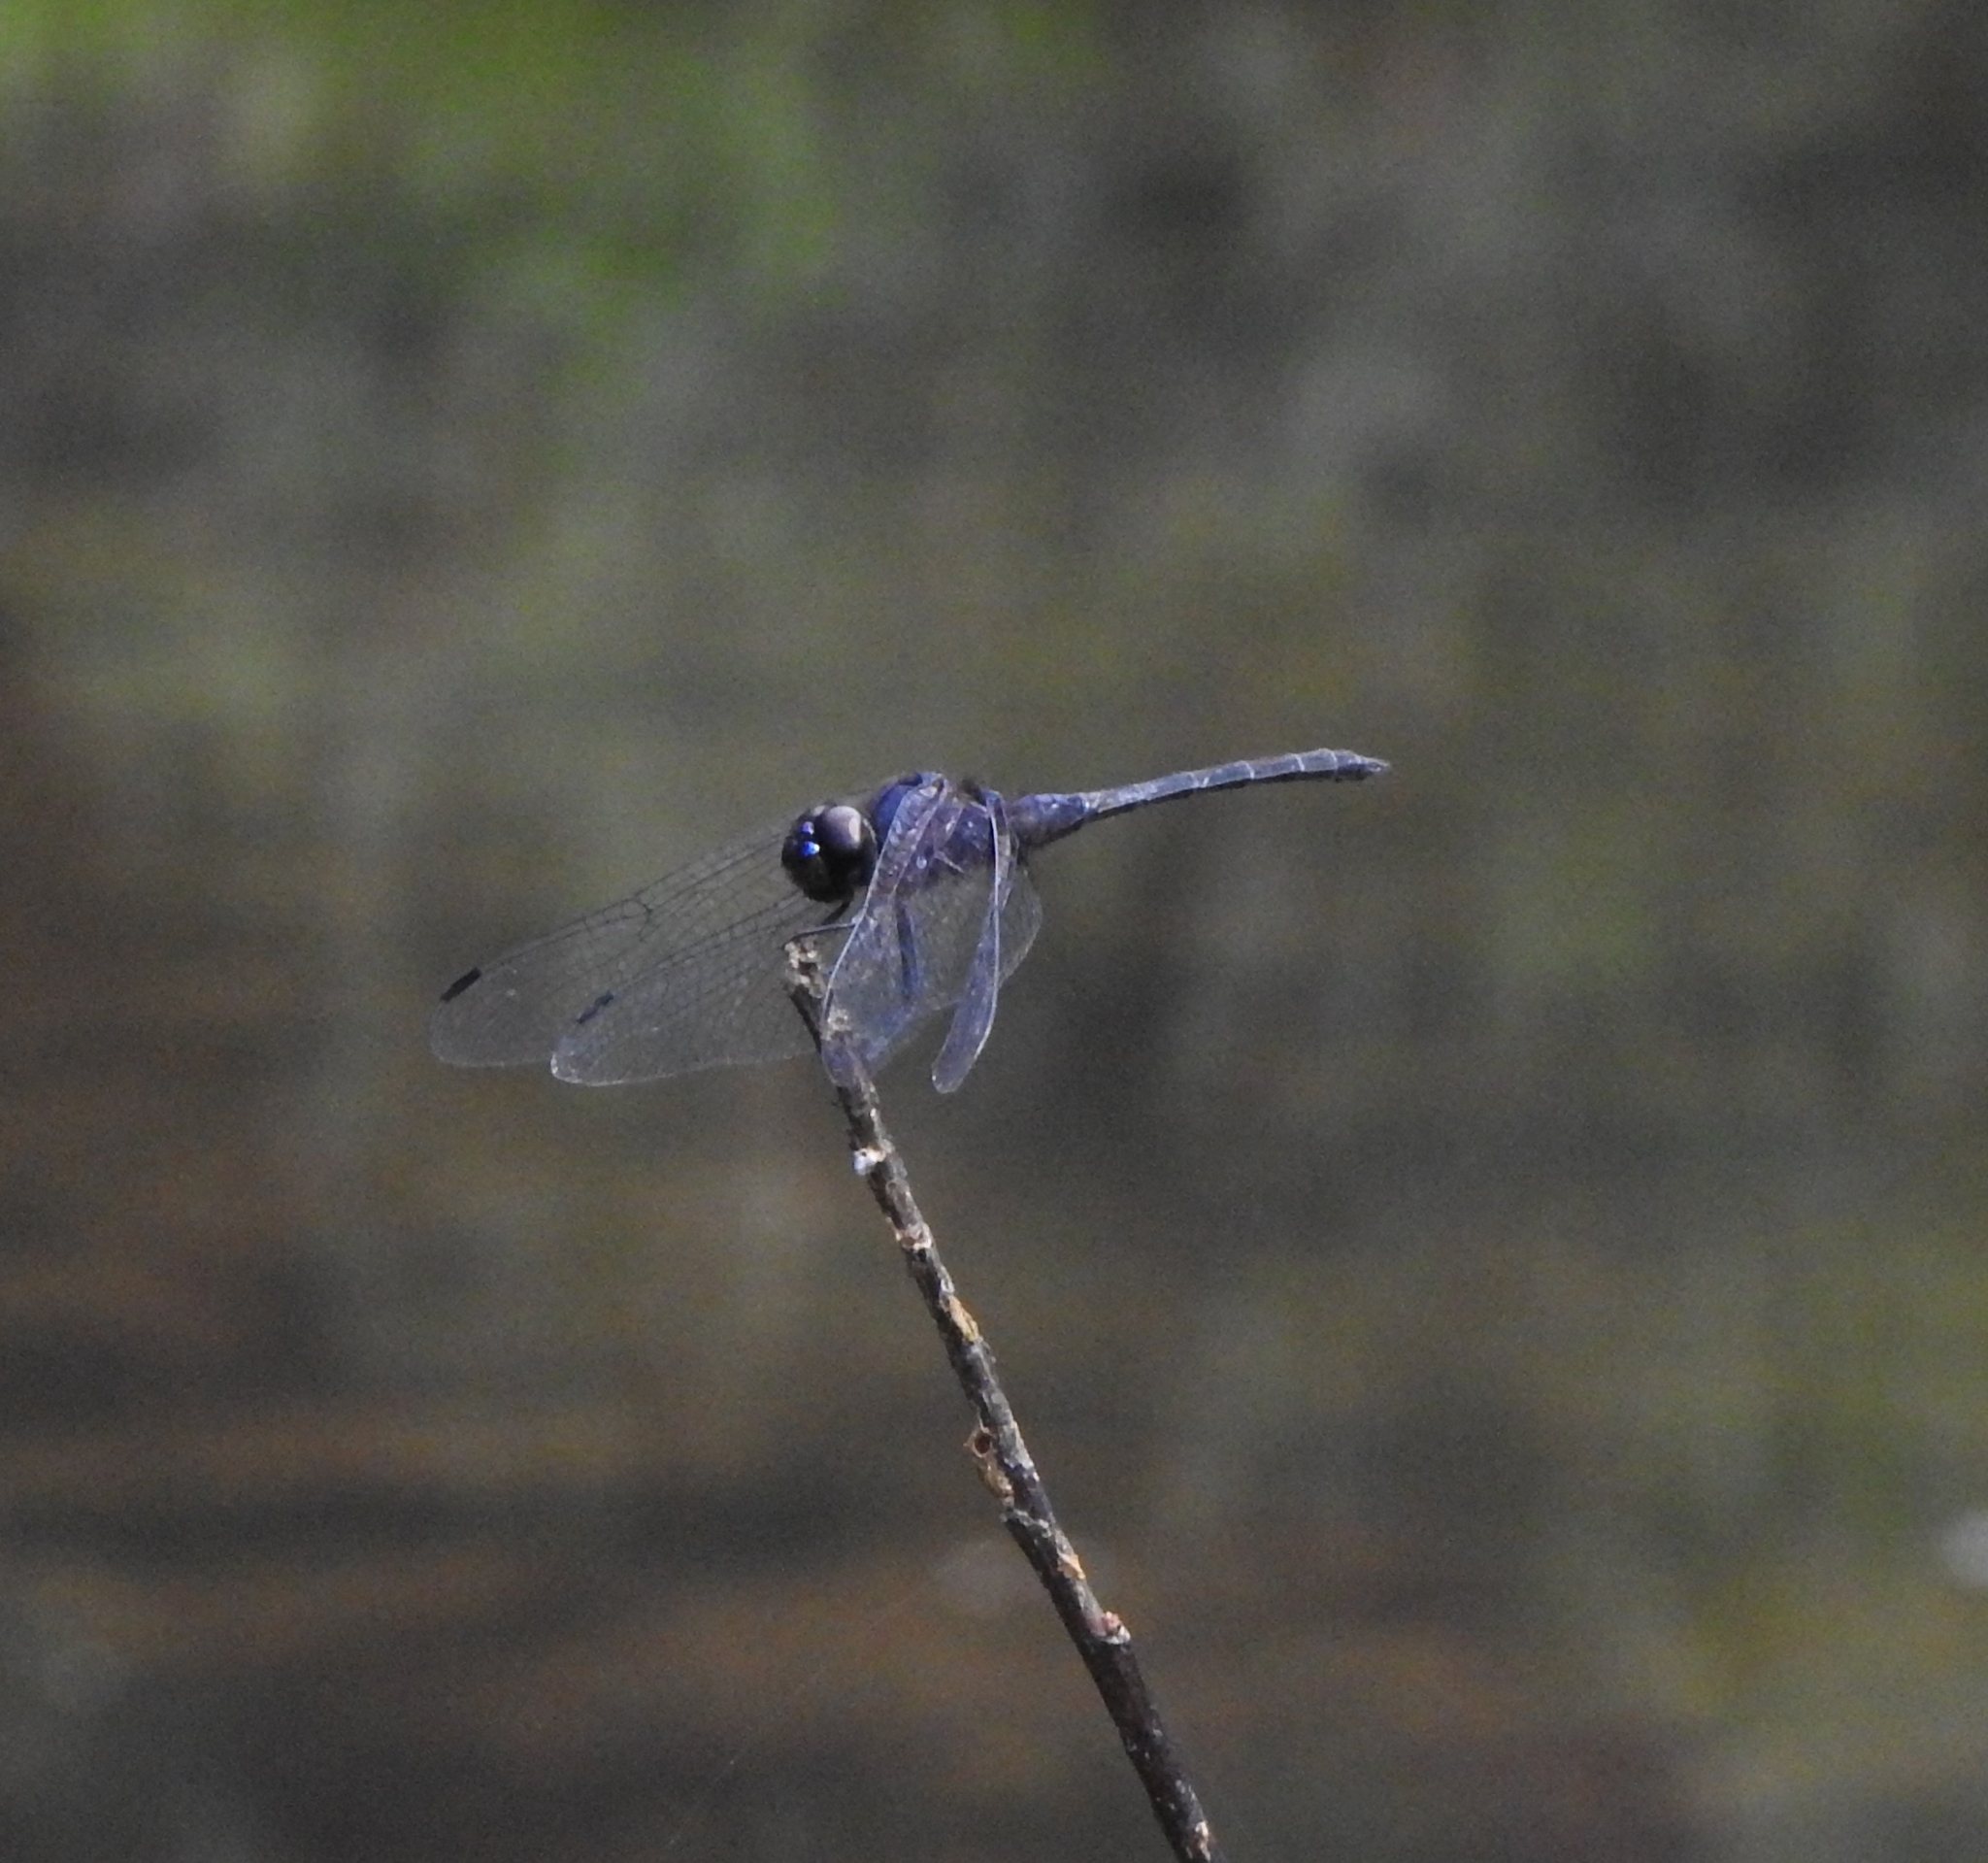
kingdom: Animalia
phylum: Arthropoda
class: Insecta
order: Odonata
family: Libellulidae
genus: Trithemis
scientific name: Trithemis festiva
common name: Indigo dropwing
